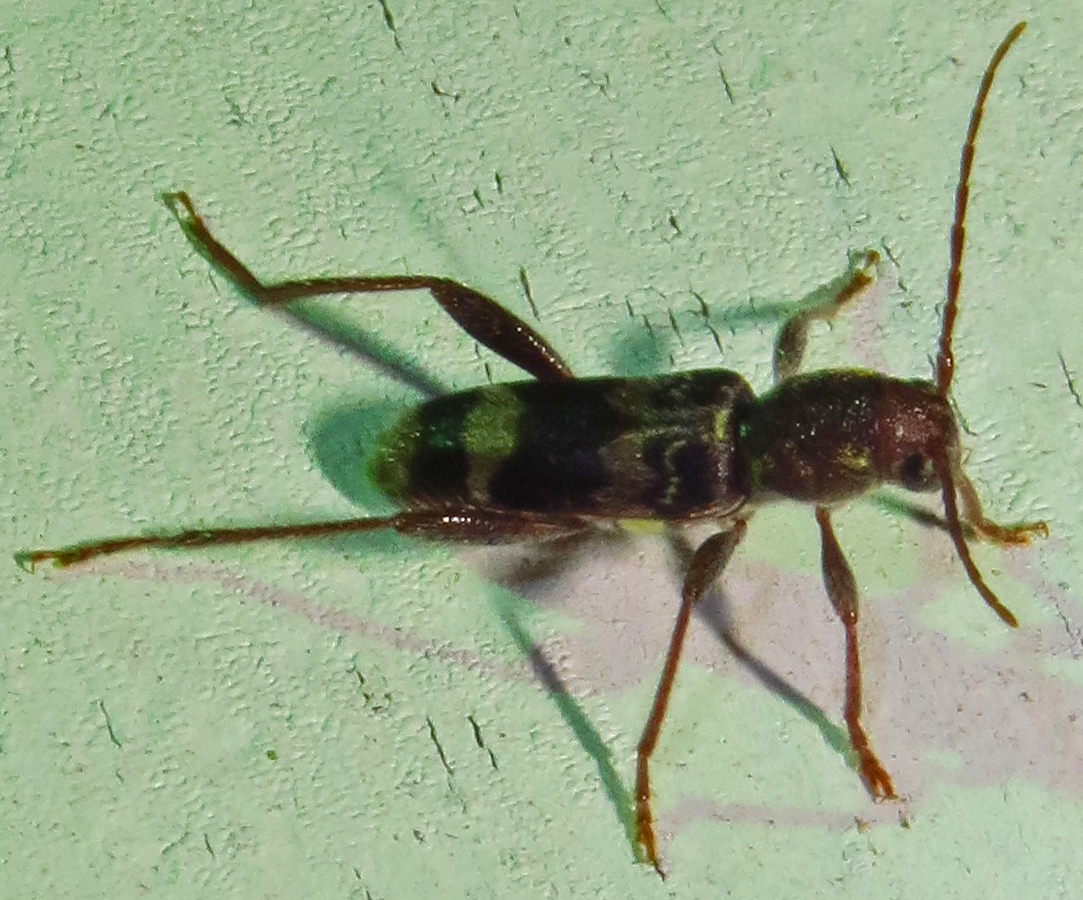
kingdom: Animalia
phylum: Arthropoda
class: Insecta
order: Coleoptera
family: Cerambycidae
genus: Xylotrechus
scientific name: Xylotrechus colonus
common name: Long-horned beetle
